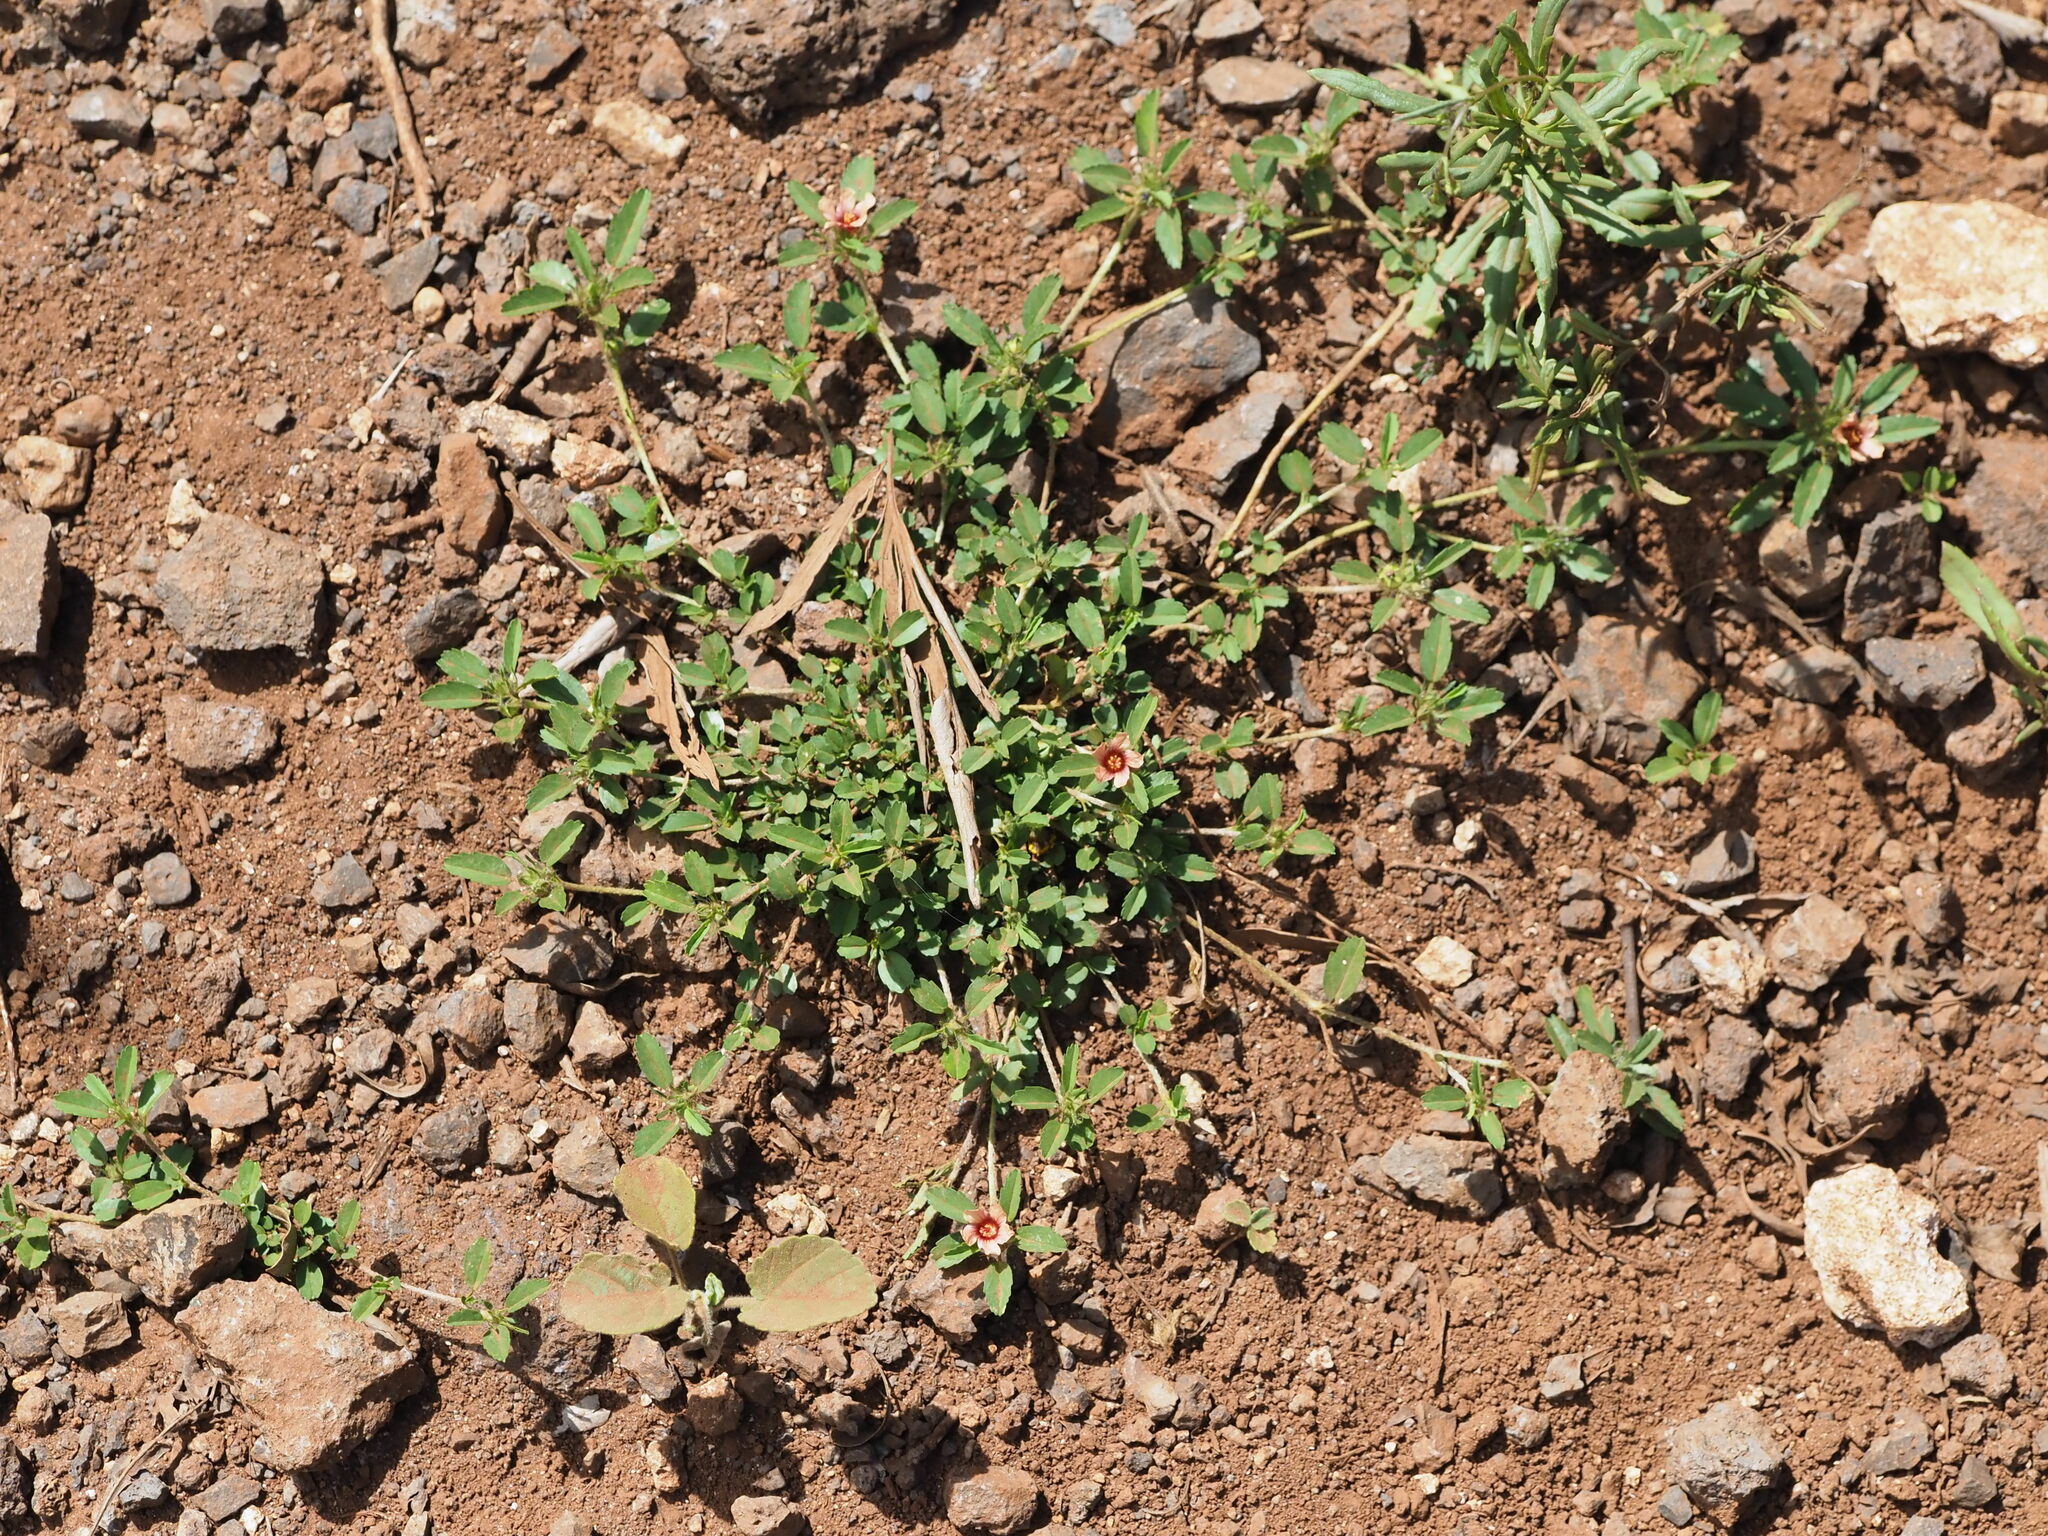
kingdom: Plantae
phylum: Tracheophyta
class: Magnoliopsida
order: Malvales
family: Malvaceae
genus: Sida
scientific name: Sida ciliaris
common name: Bracted fanpetals
